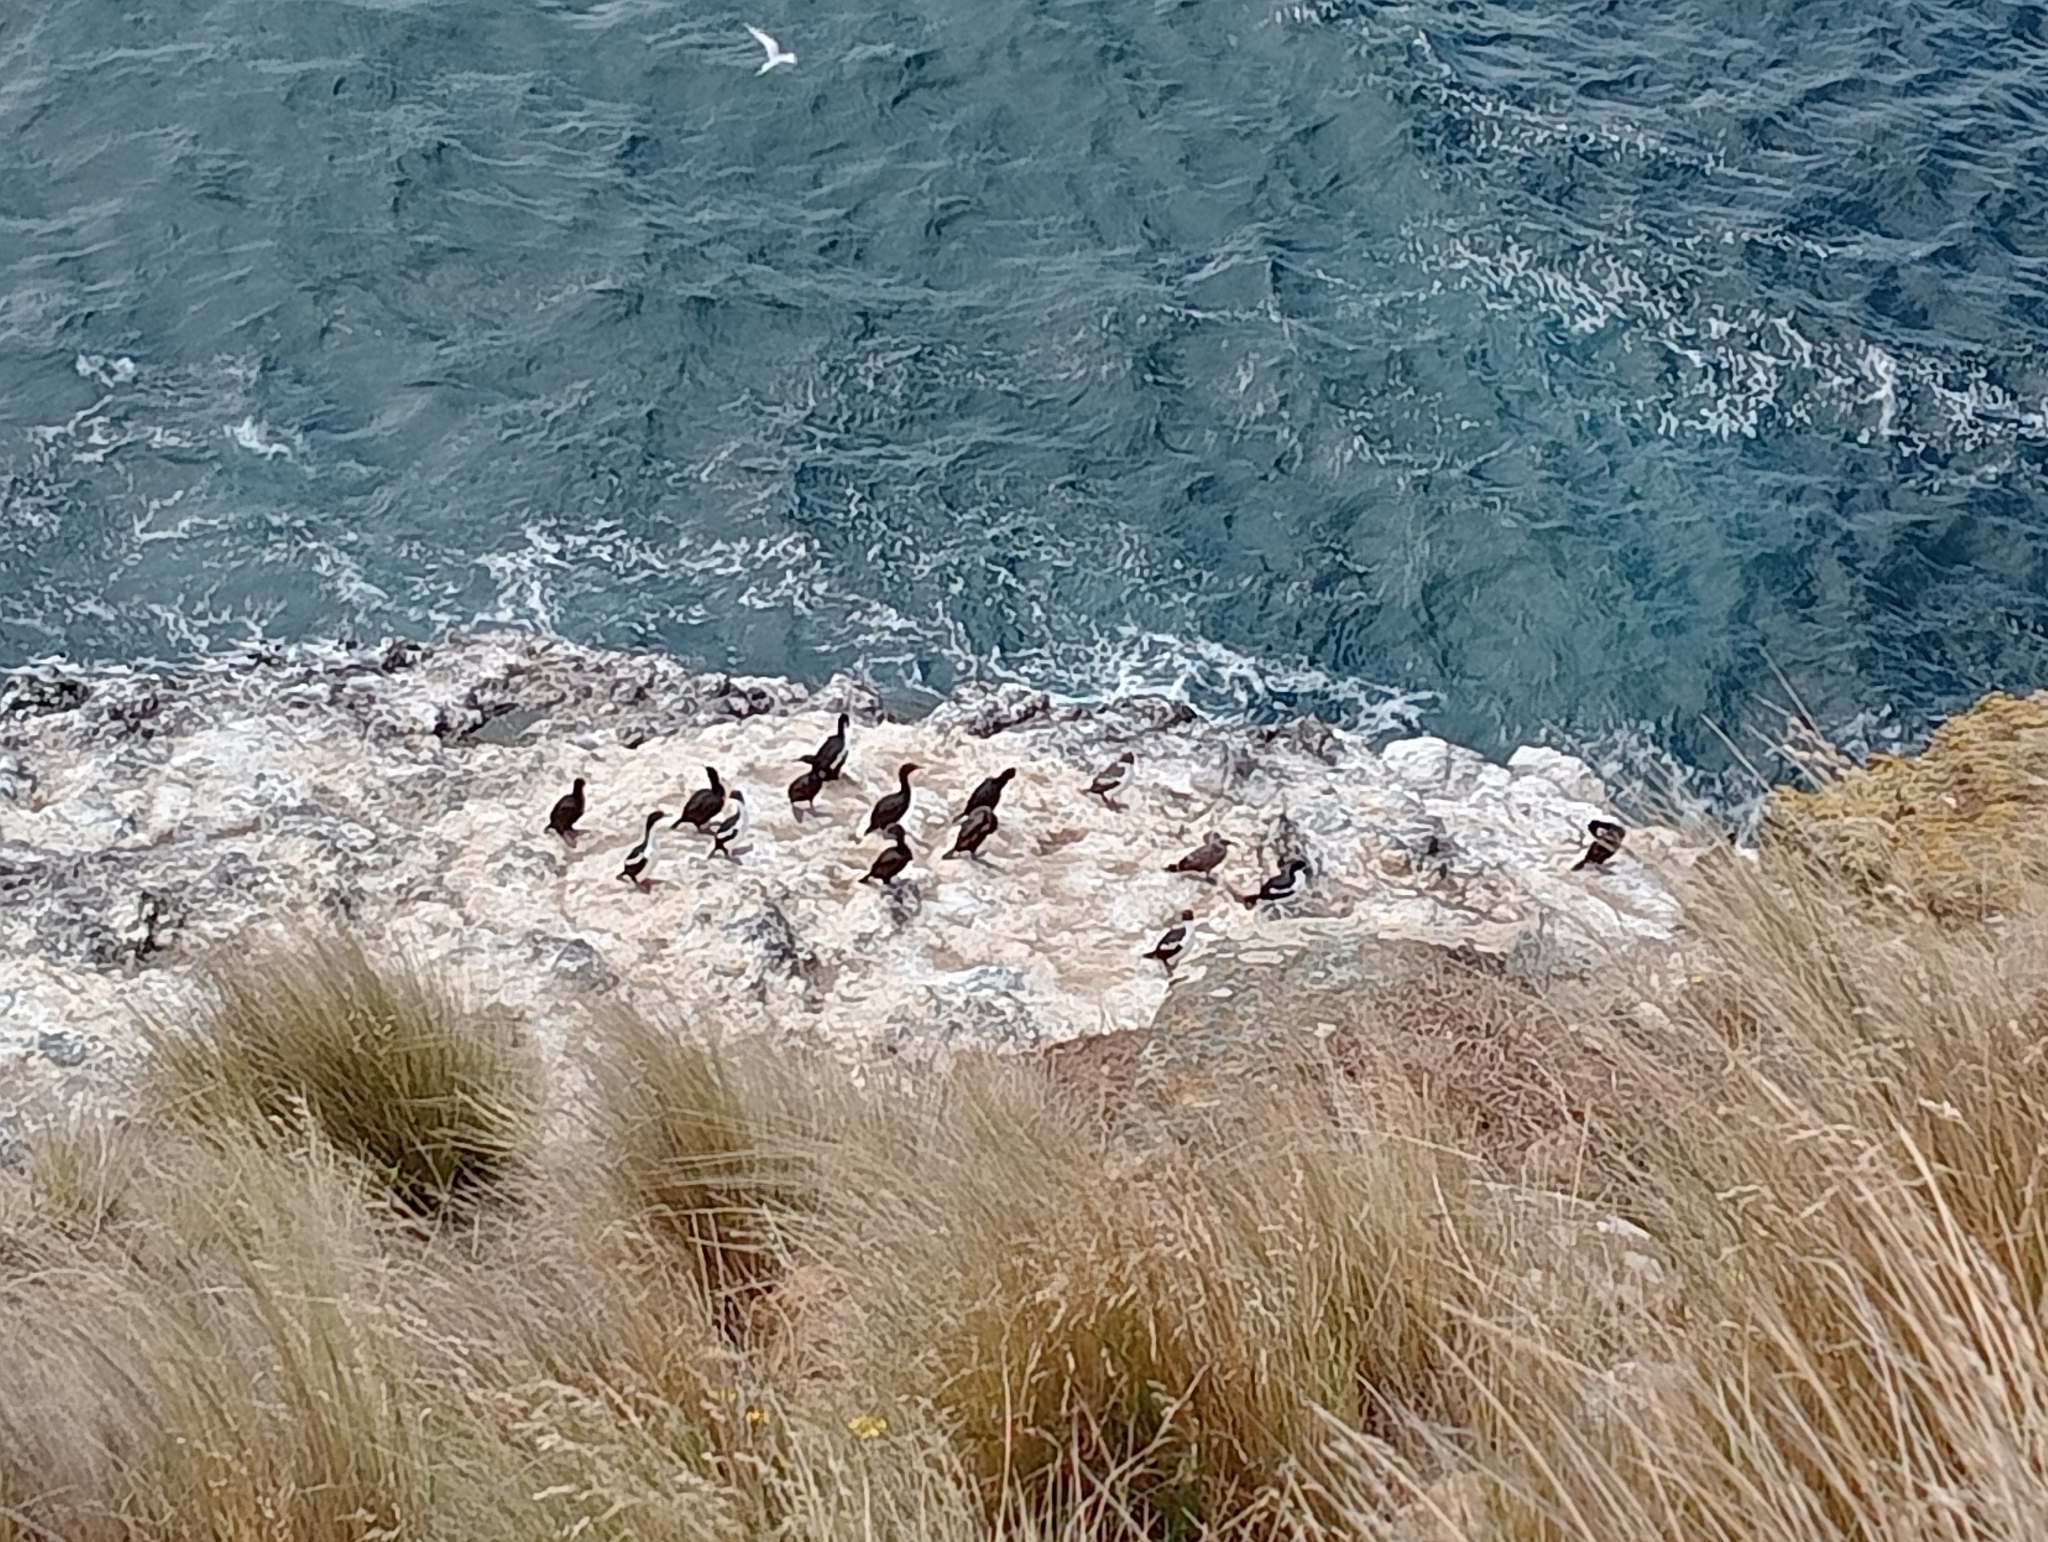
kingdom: Animalia
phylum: Chordata
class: Aves
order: Suliformes
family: Phalacrocoracidae
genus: Leucocarbo
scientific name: Leucocarbo chalconotus
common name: Stewart shag
